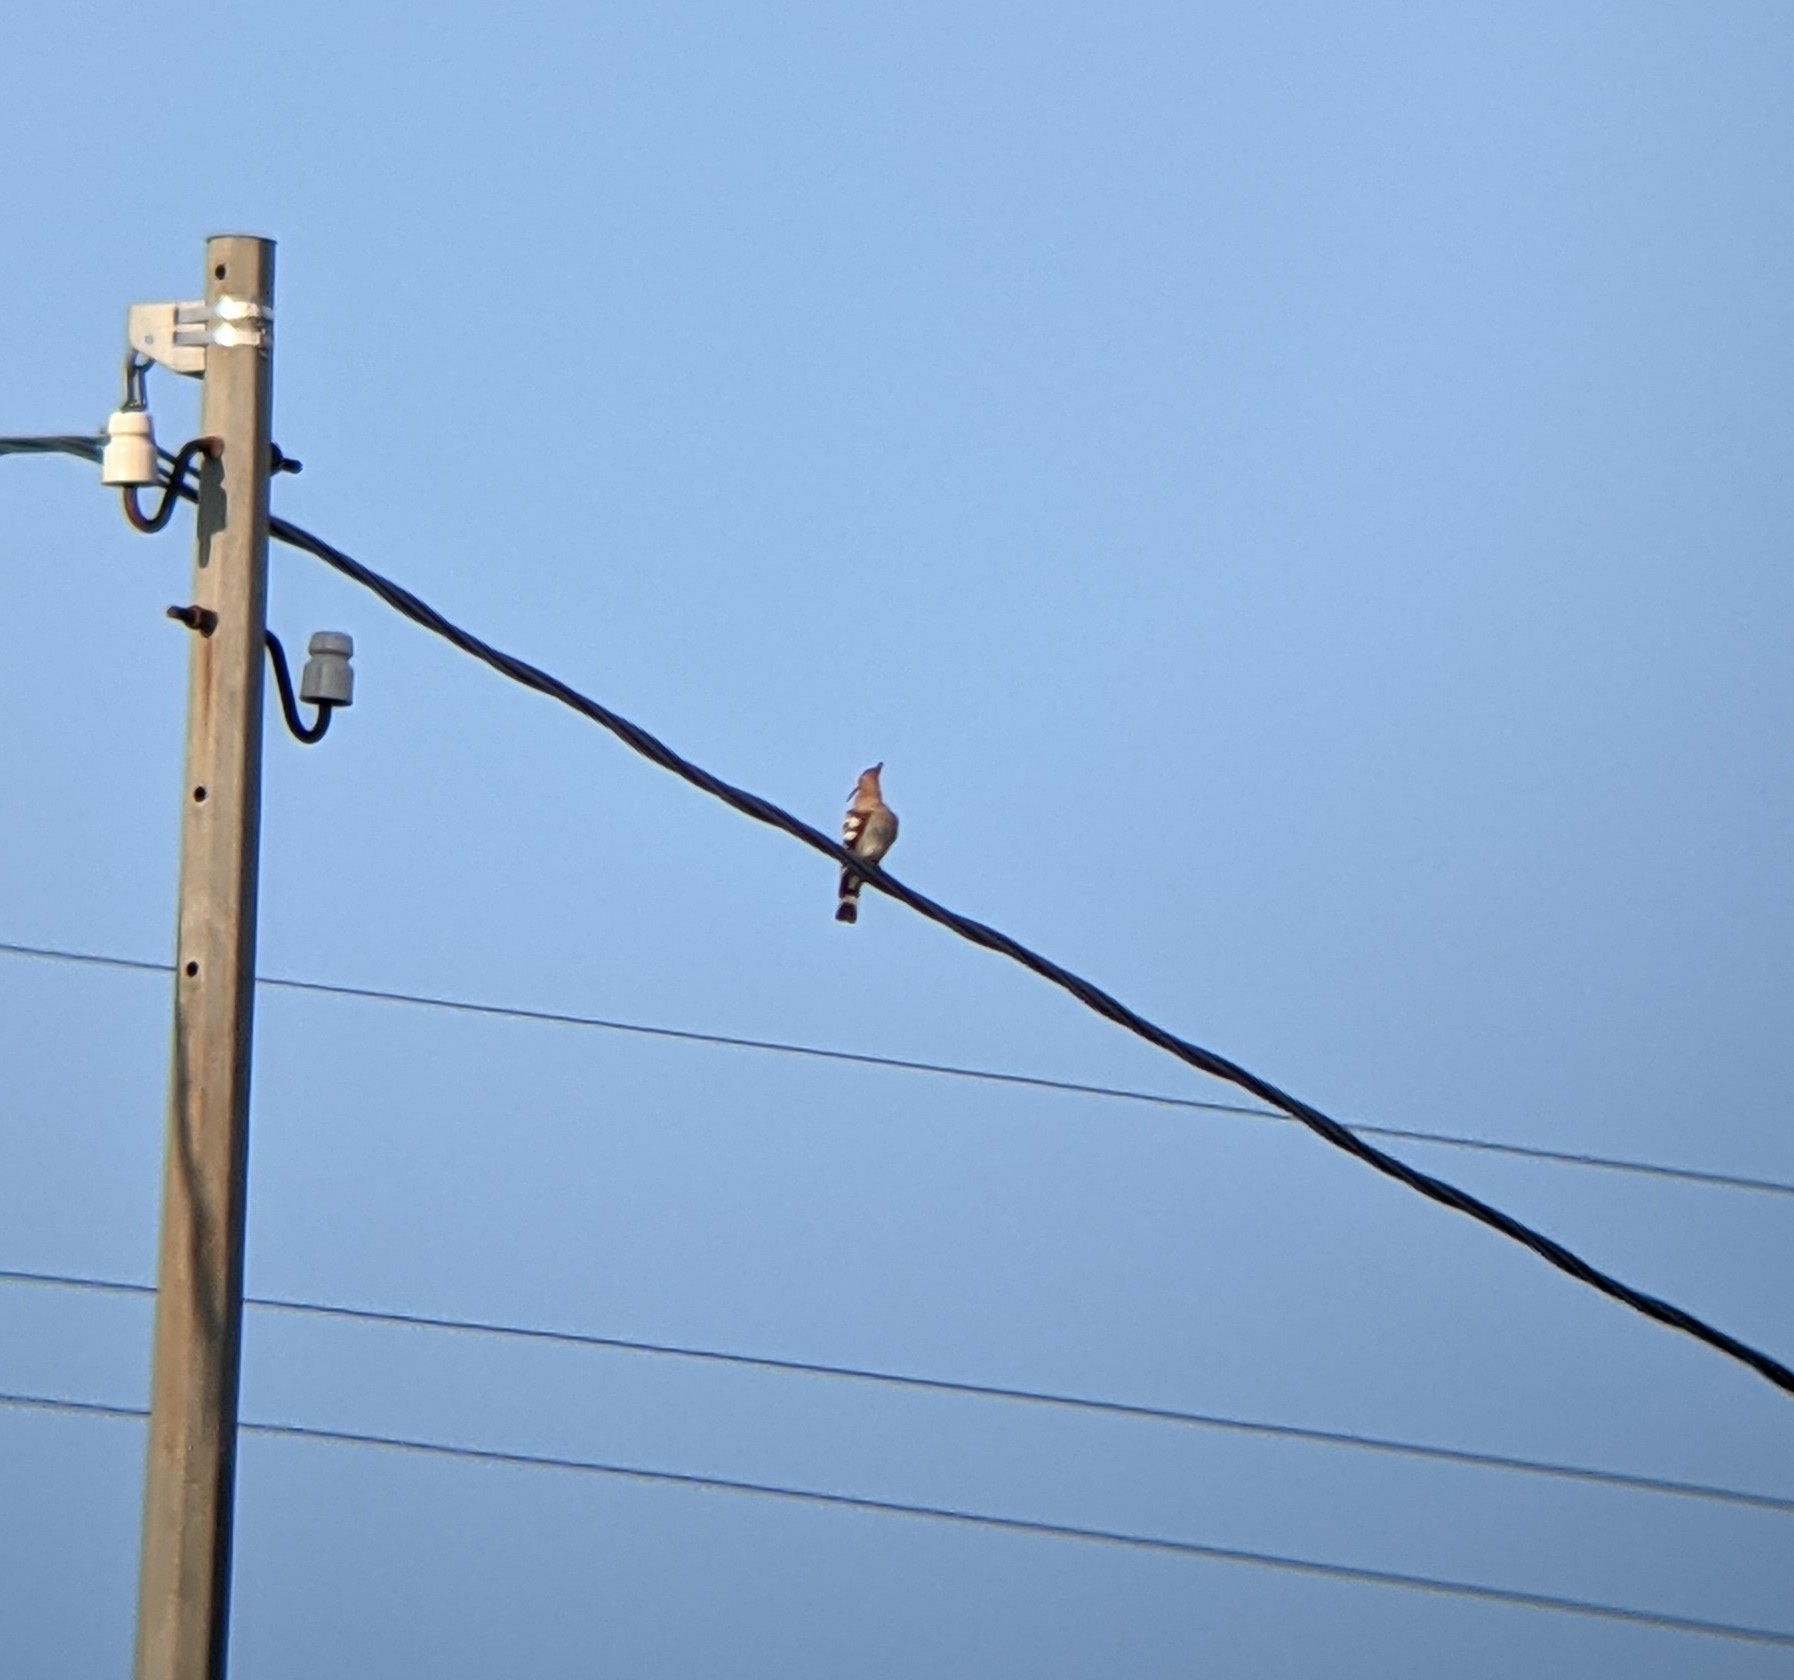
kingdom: Animalia
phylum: Chordata
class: Aves
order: Bucerotiformes
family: Upupidae
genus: Upupa
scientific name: Upupa epops
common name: Eurasian hoopoe
